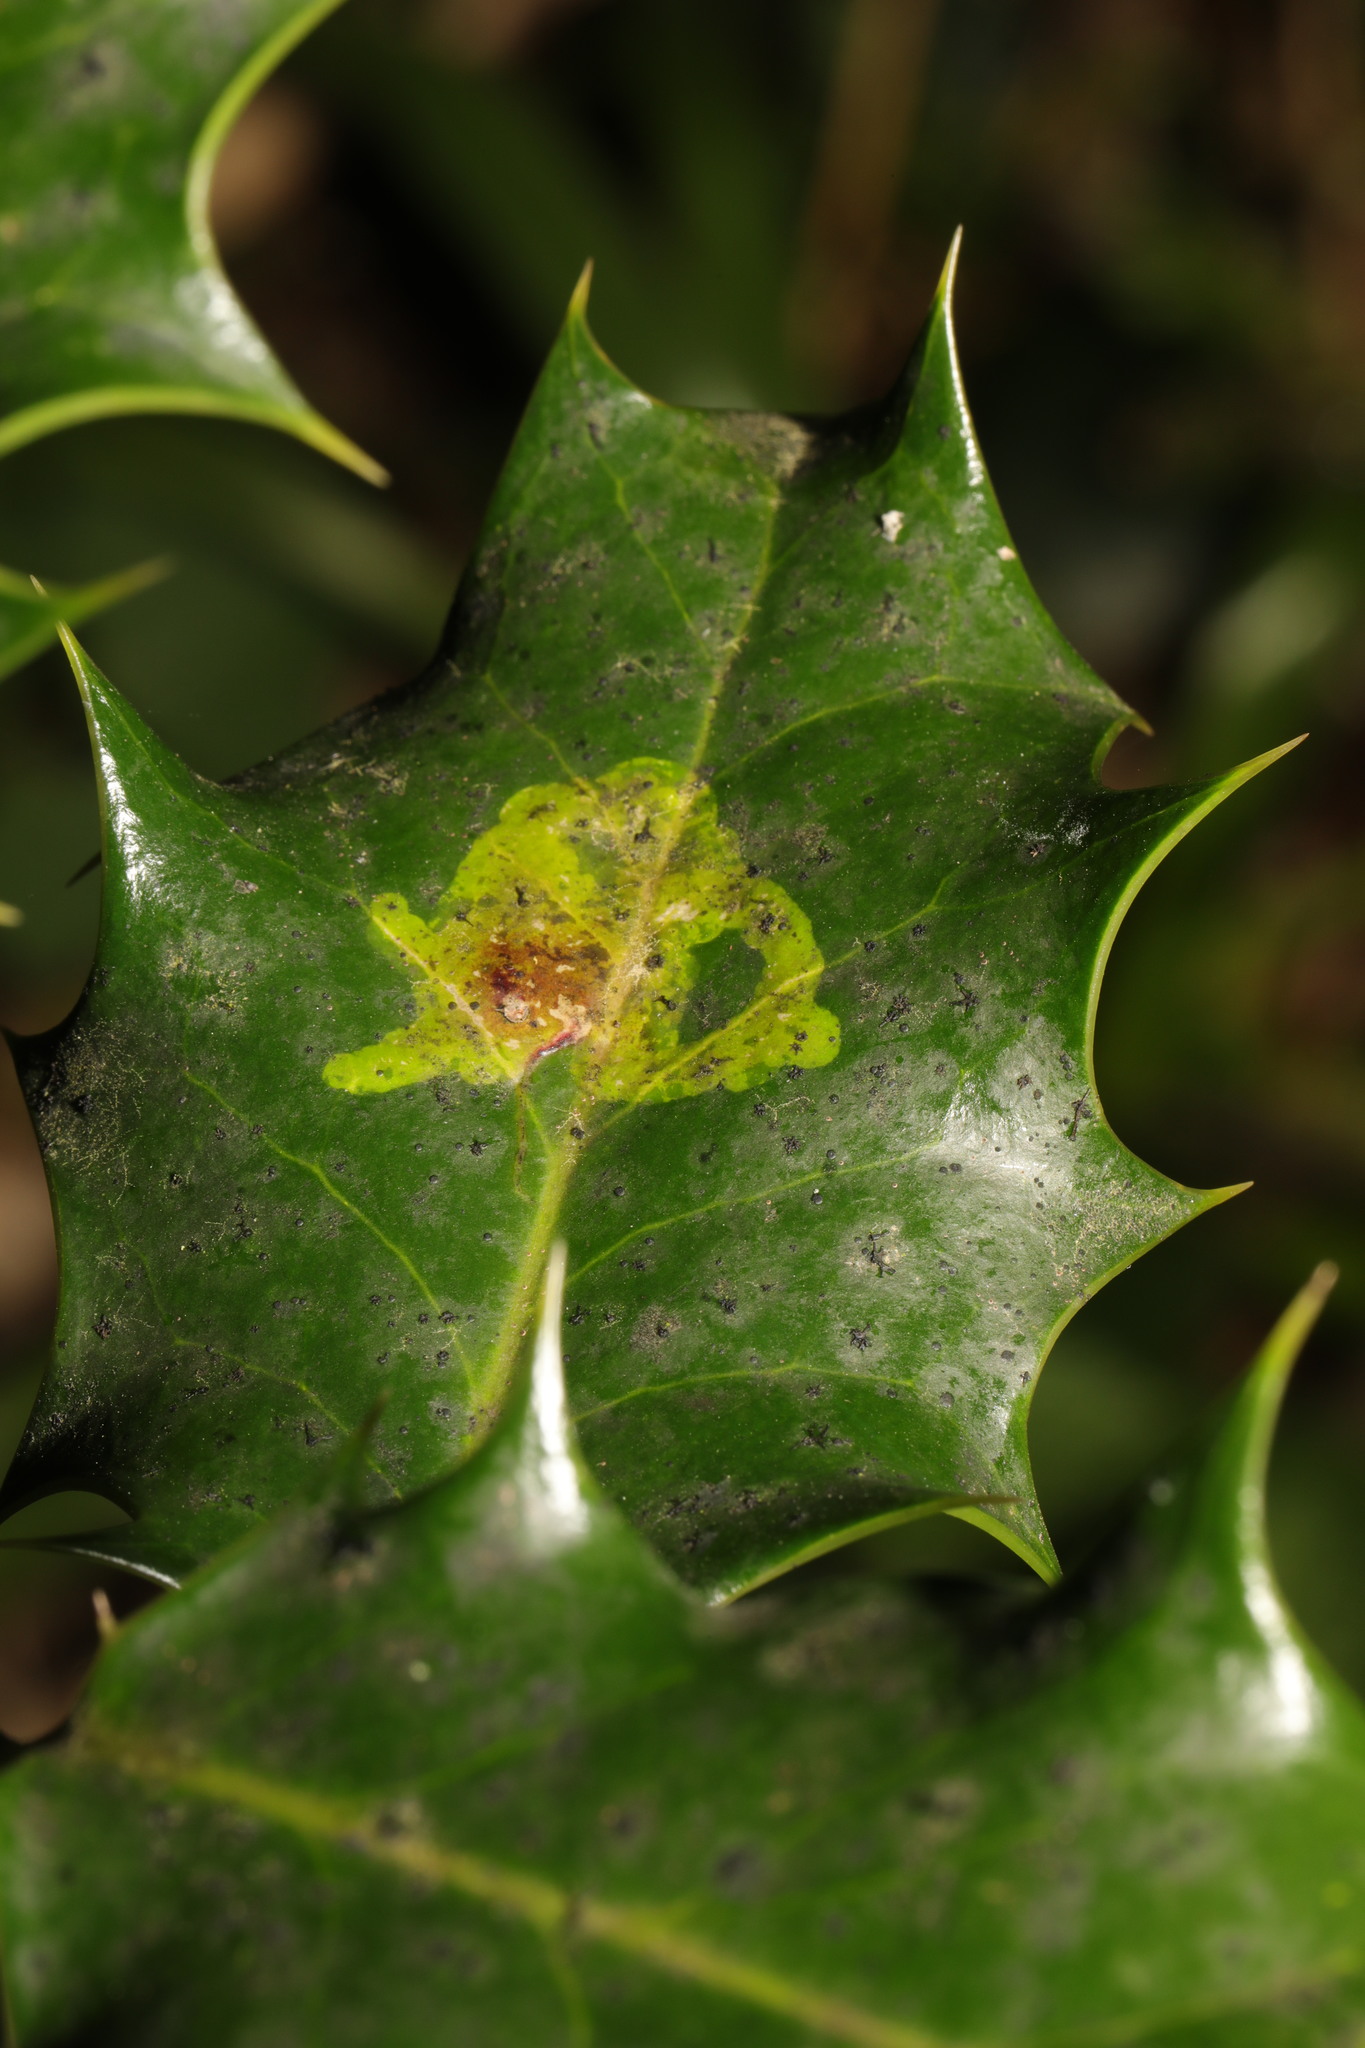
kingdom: Animalia
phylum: Arthropoda
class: Insecta
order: Diptera
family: Agromyzidae
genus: Phytomyza
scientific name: Phytomyza ilicis
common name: Holly leafminer
